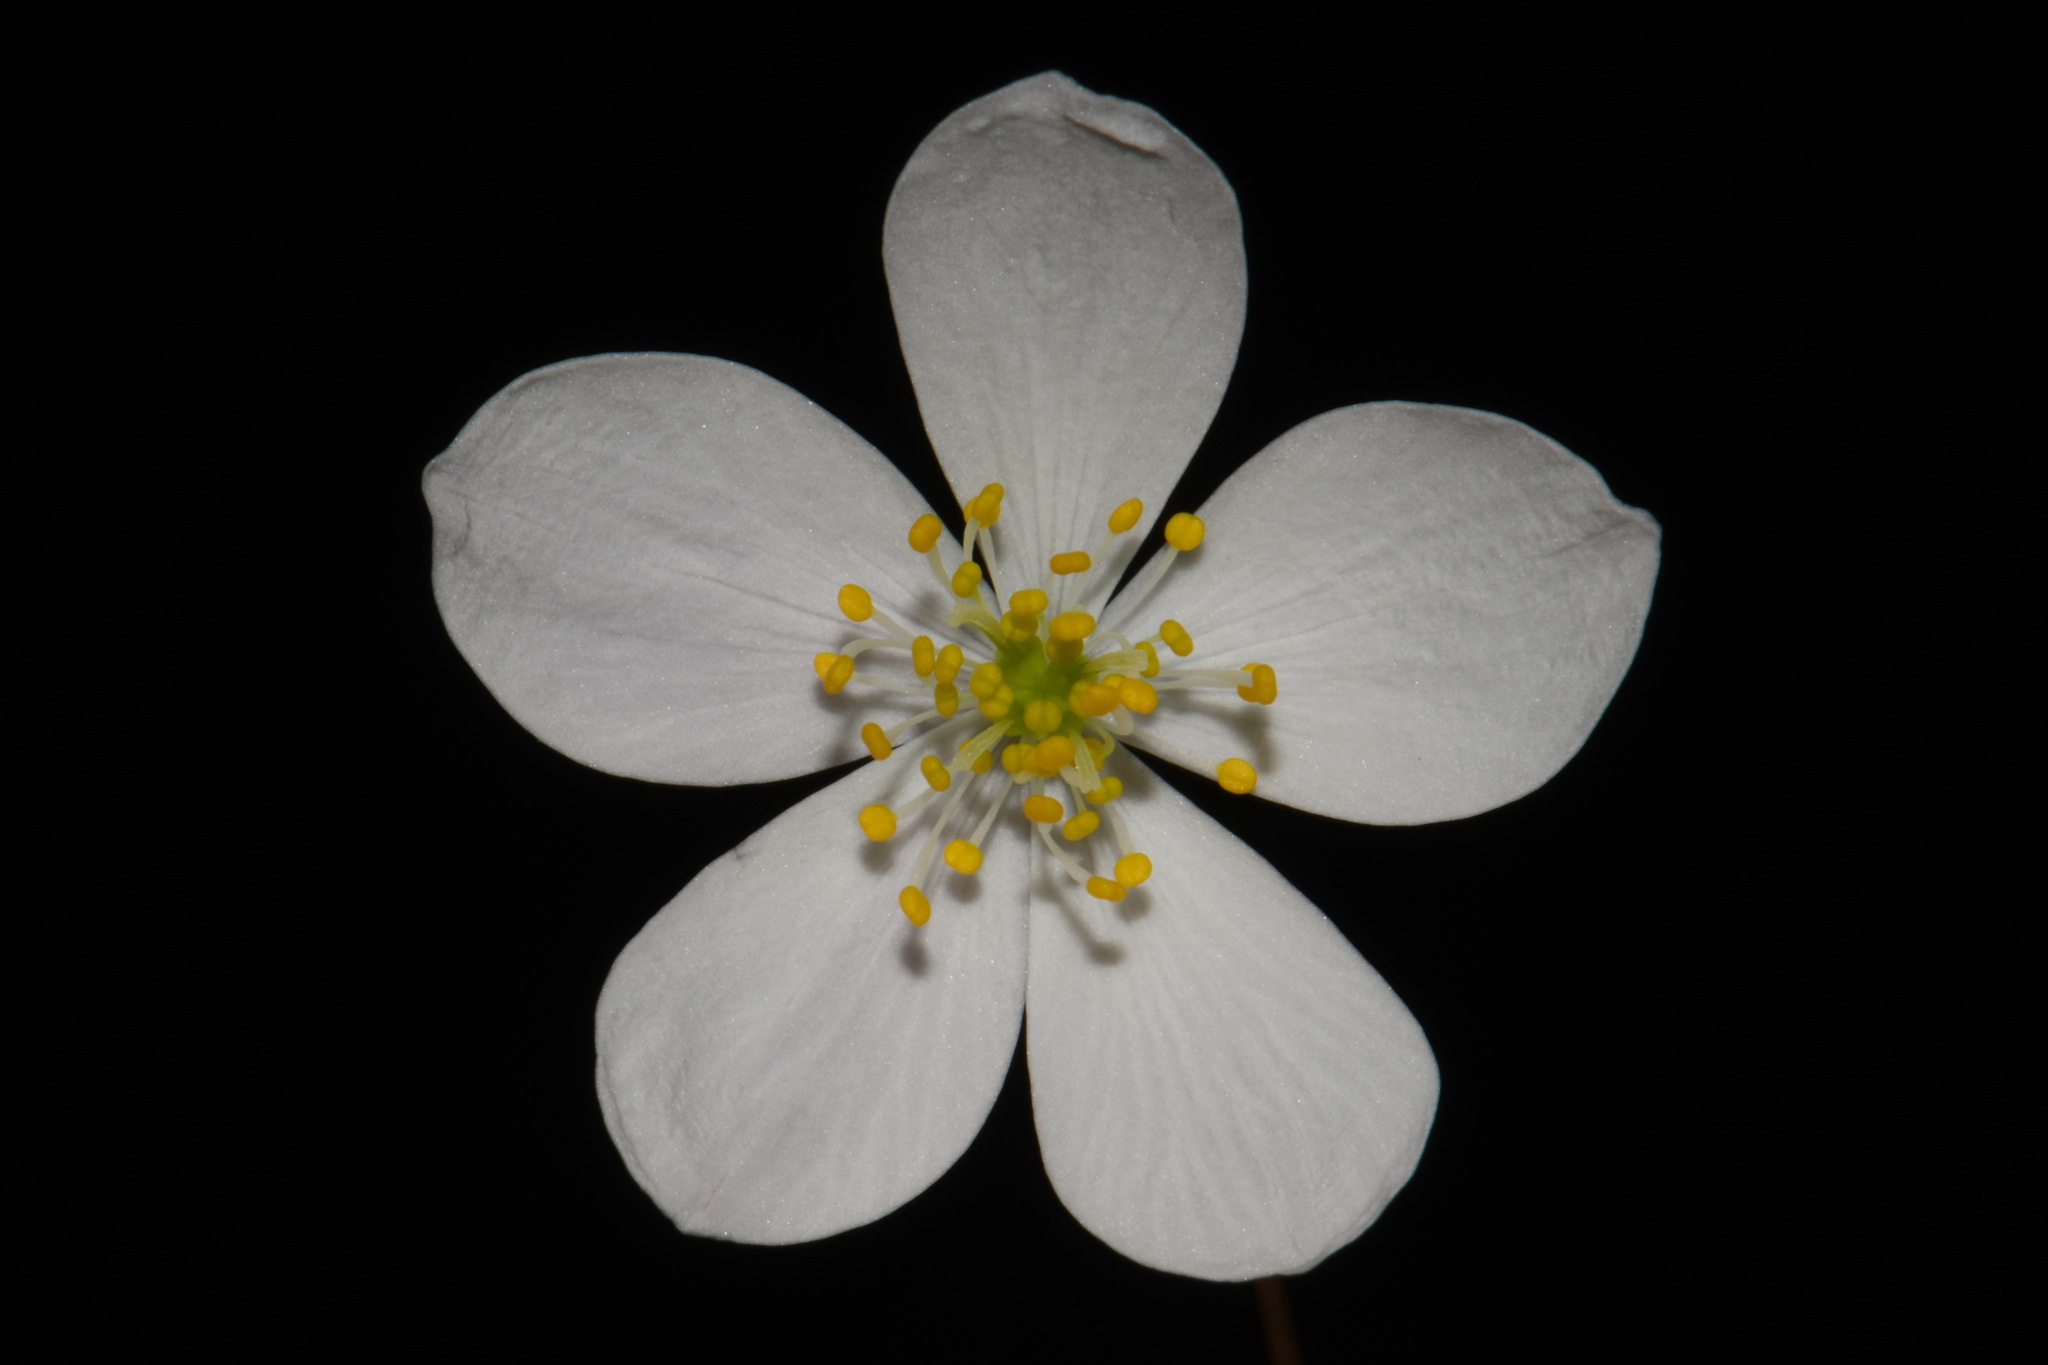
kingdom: Plantae
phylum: Tracheophyta
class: Magnoliopsida
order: Ranunculales
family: Ranunculaceae
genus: Enemion
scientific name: Enemion biternatum
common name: Eastern false rue-anemone
